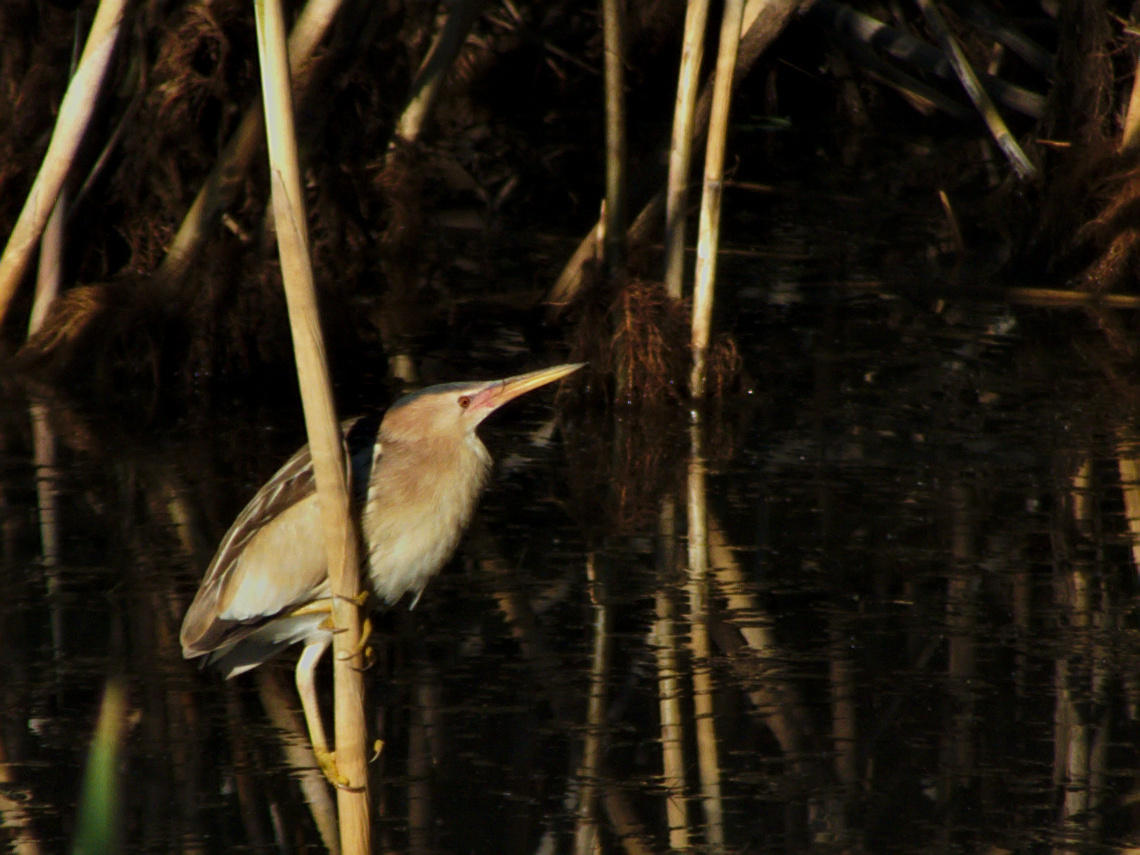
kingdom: Animalia
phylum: Chordata
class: Aves
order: Pelecaniformes
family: Ardeidae
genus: Ixobrychus
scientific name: Ixobrychus minutus
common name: Little bittern
